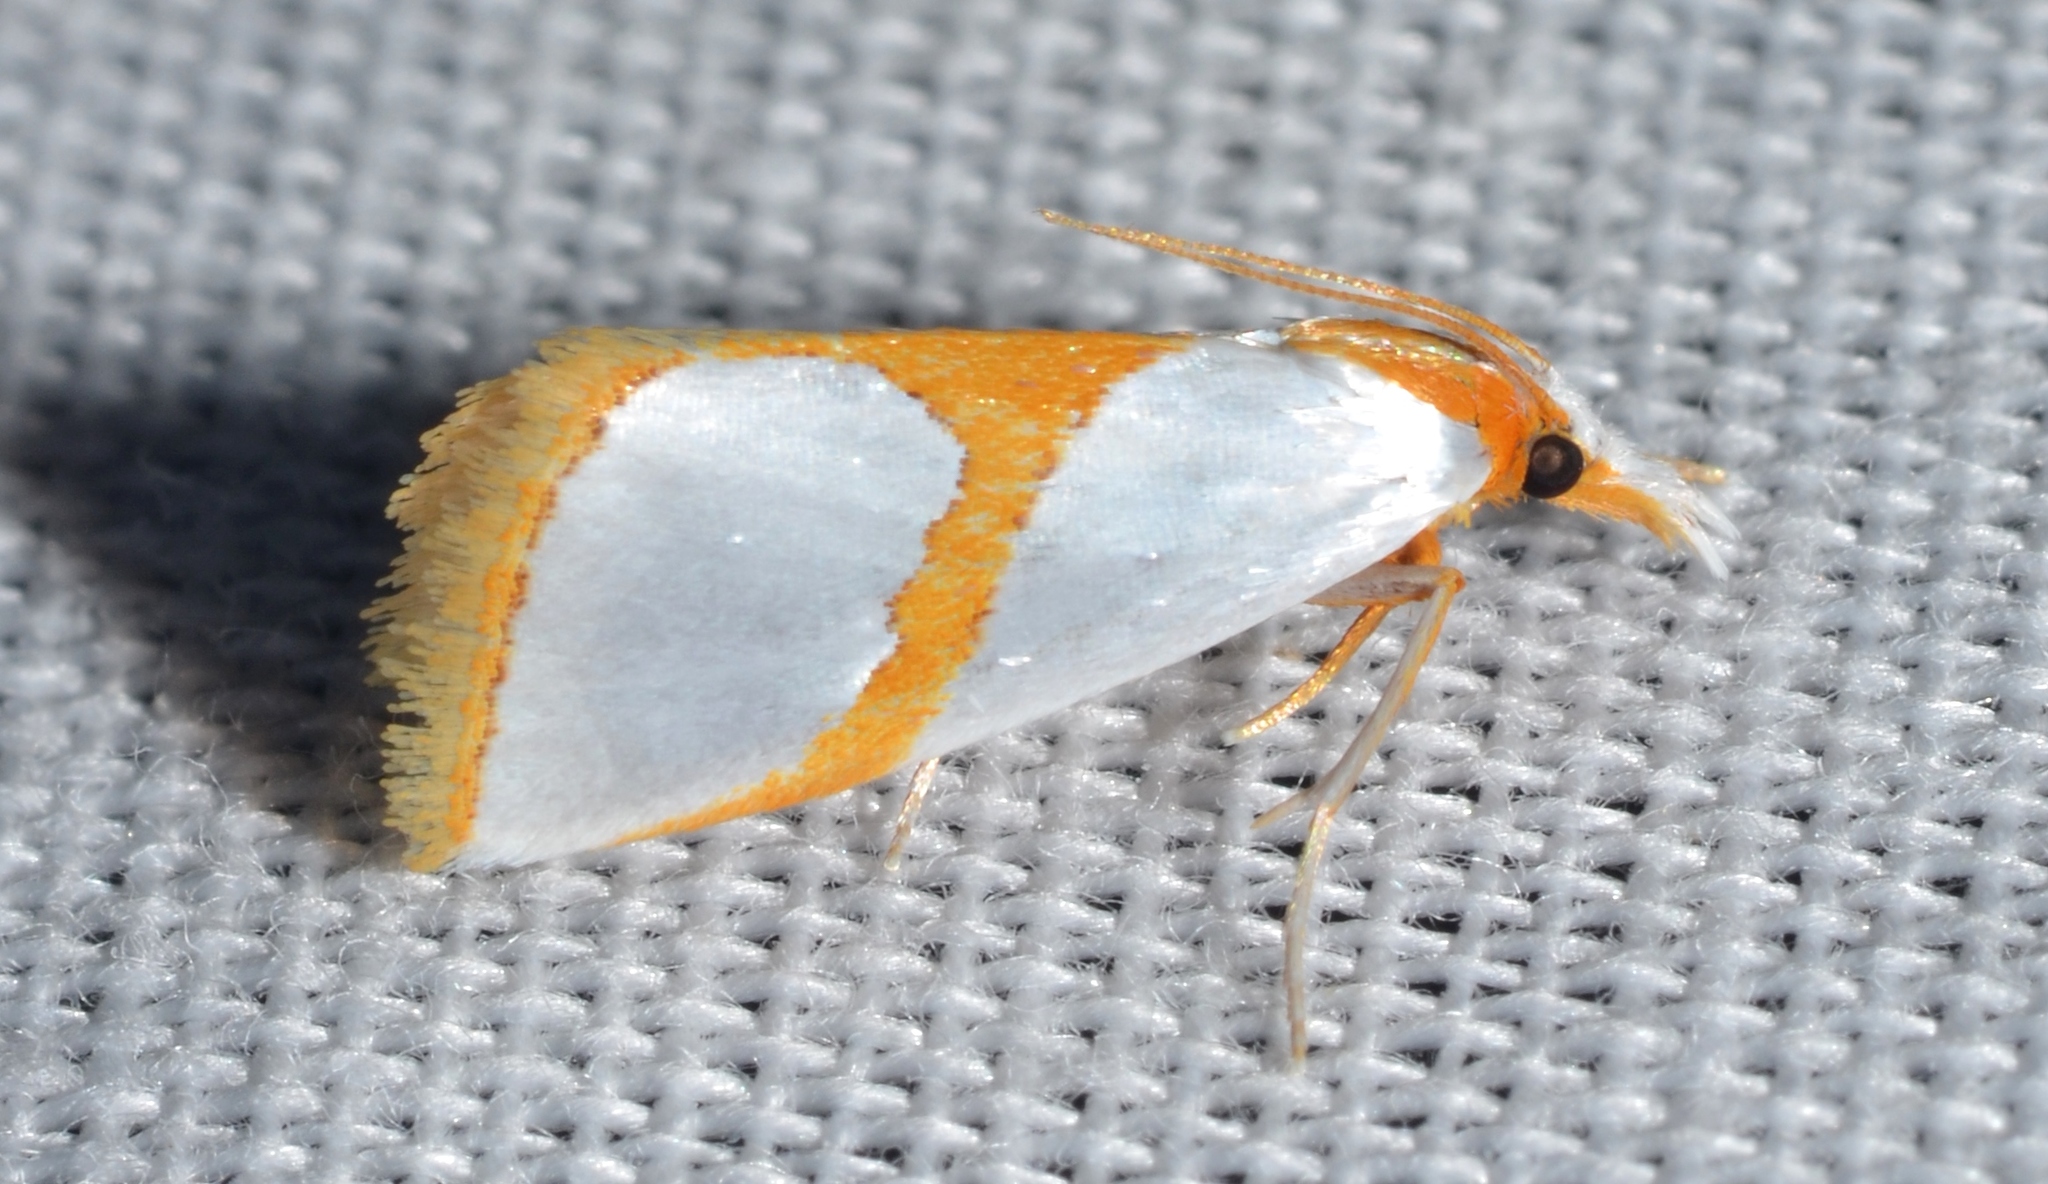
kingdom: Animalia
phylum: Arthropoda
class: Insecta
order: Lepidoptera
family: Crambidae
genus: Argyria
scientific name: Argyria auratella
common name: Curve-lined argyria moth
